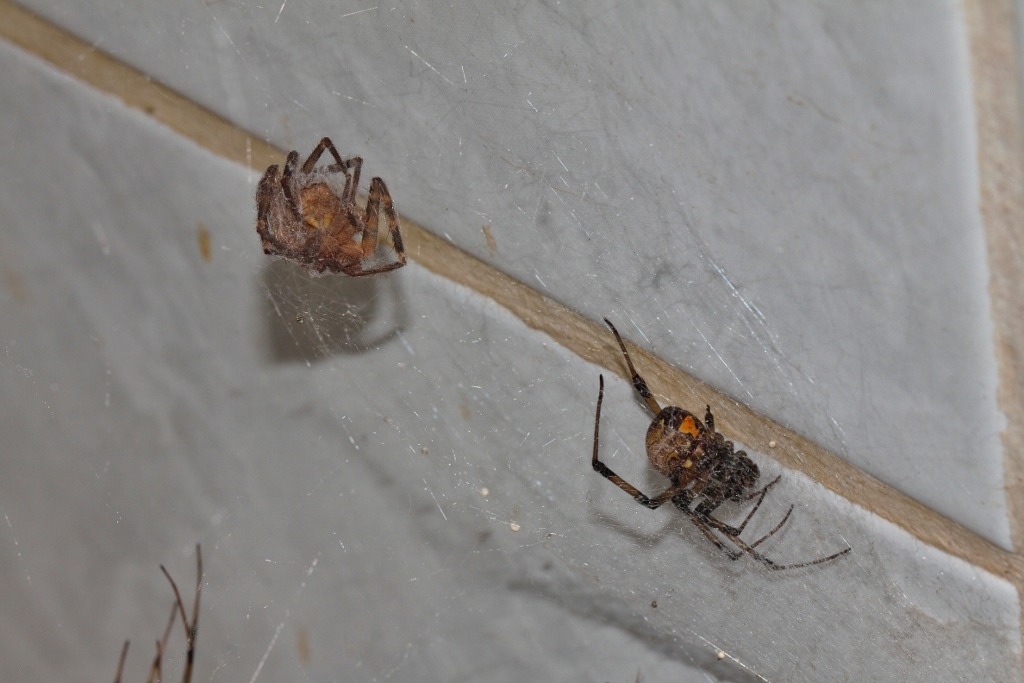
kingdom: Animalia
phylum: Arthropoda
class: Arachnida
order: Araneae
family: Theridiidae
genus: Latrodectus
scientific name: Latrodectus geometricus
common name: Brown widow spider
